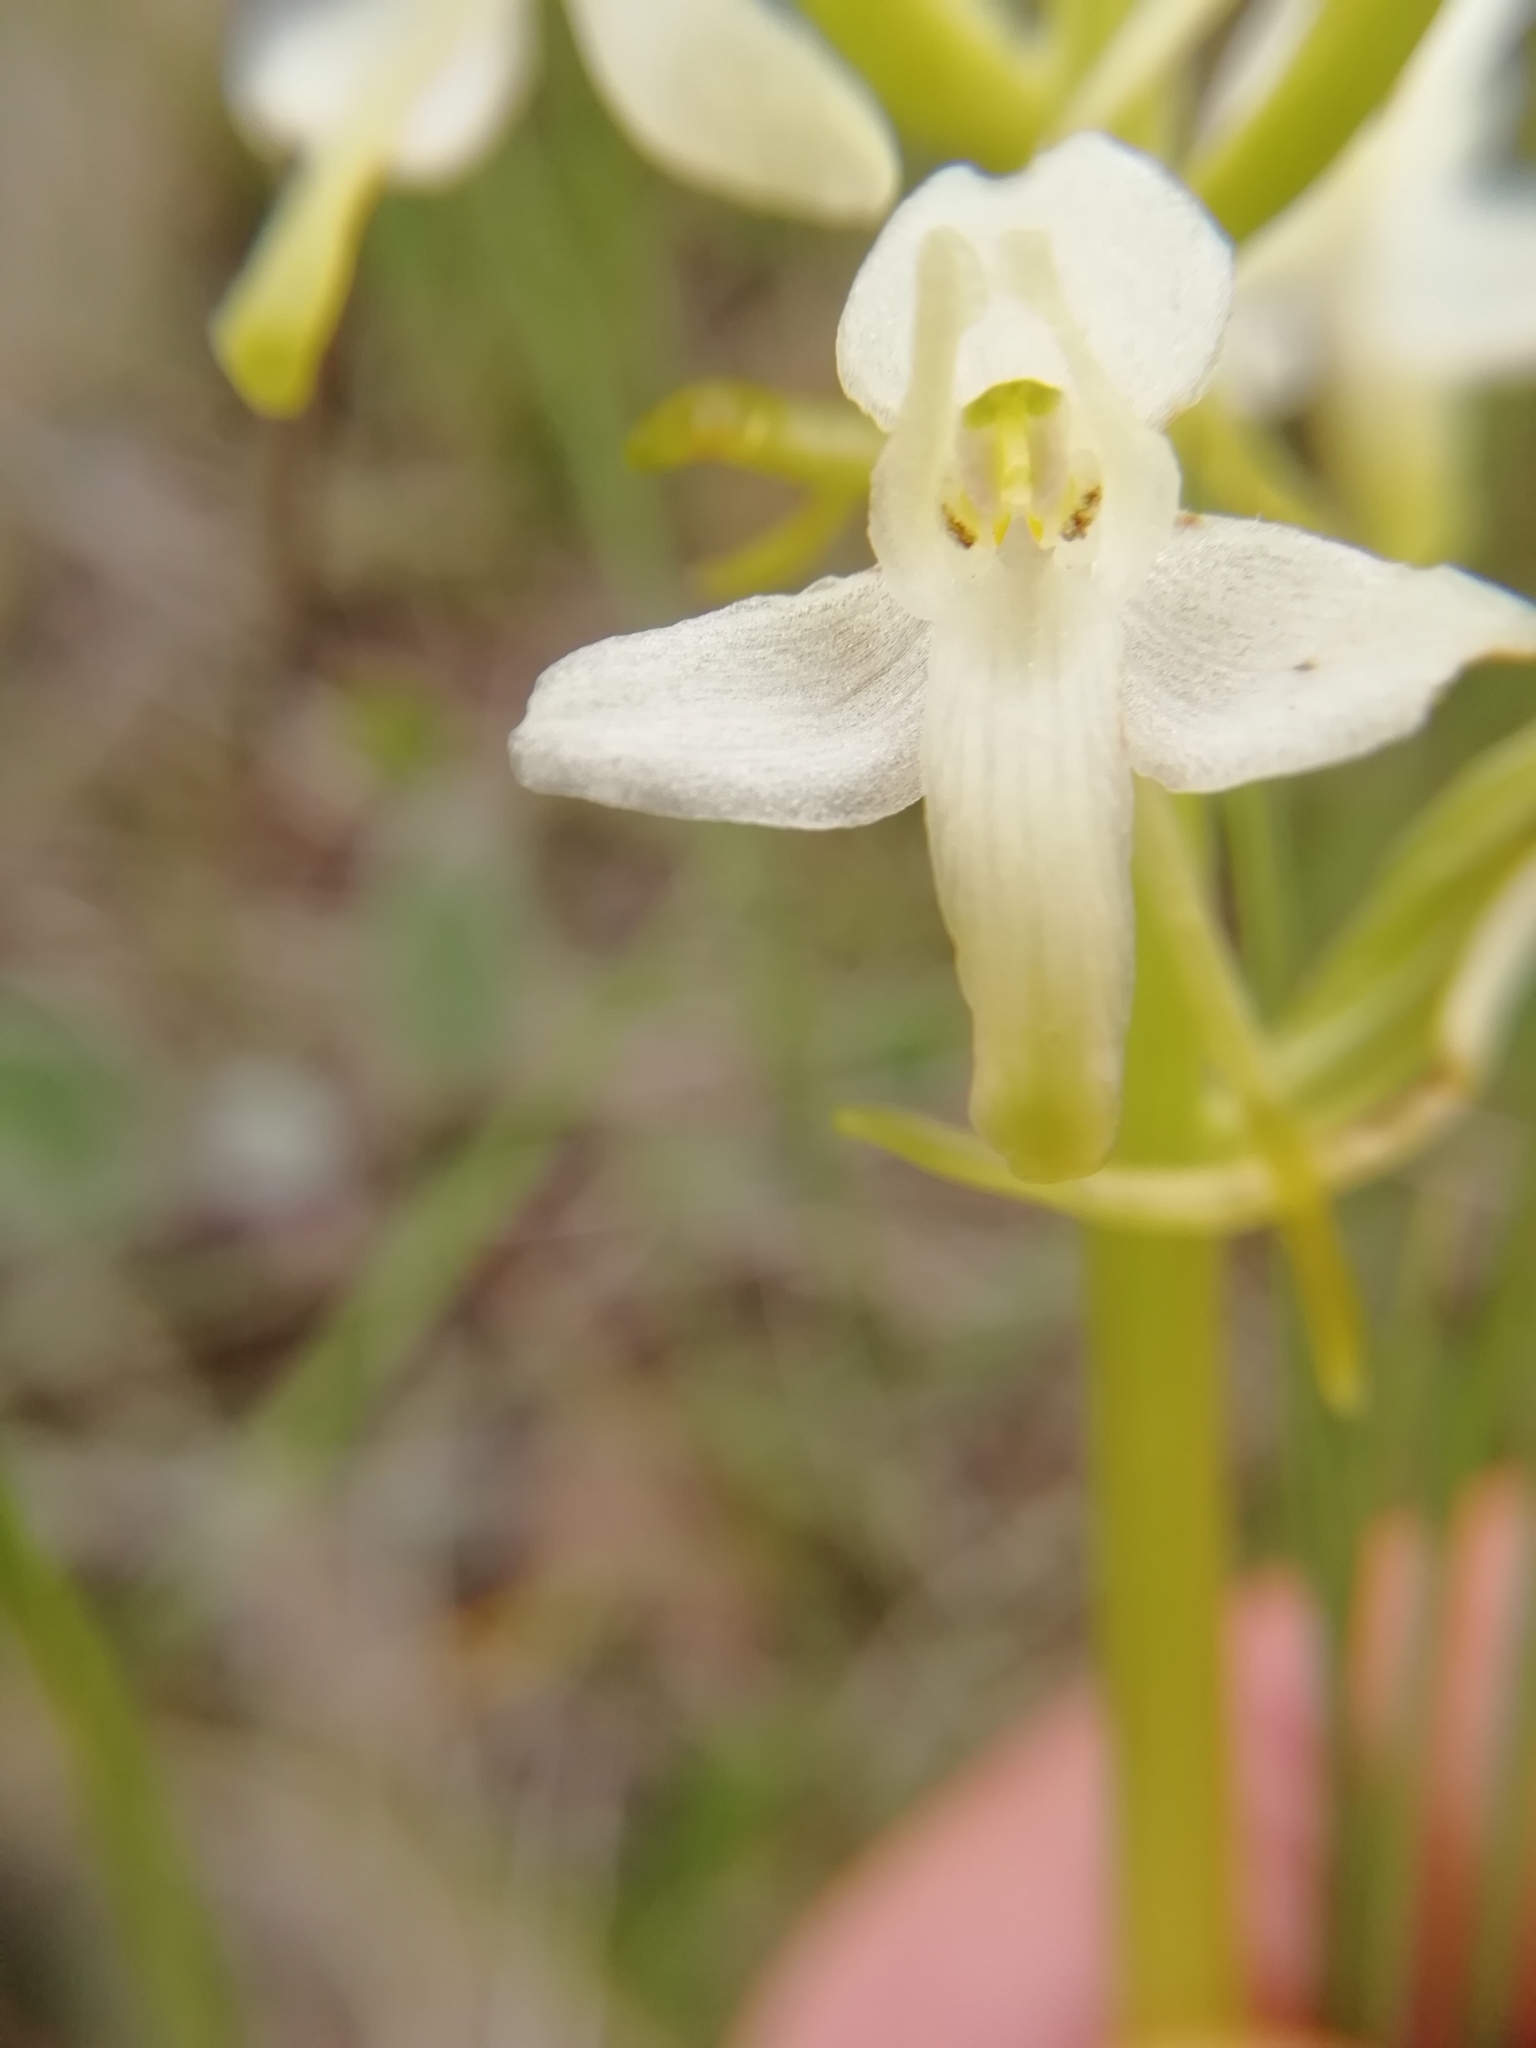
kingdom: Plantae
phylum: Tracheophyta
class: Liliopsida
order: Asparagales
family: Orchidaceae
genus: Platanthera
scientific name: Platanthera bifolia
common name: Lesser butterfly-orchid
